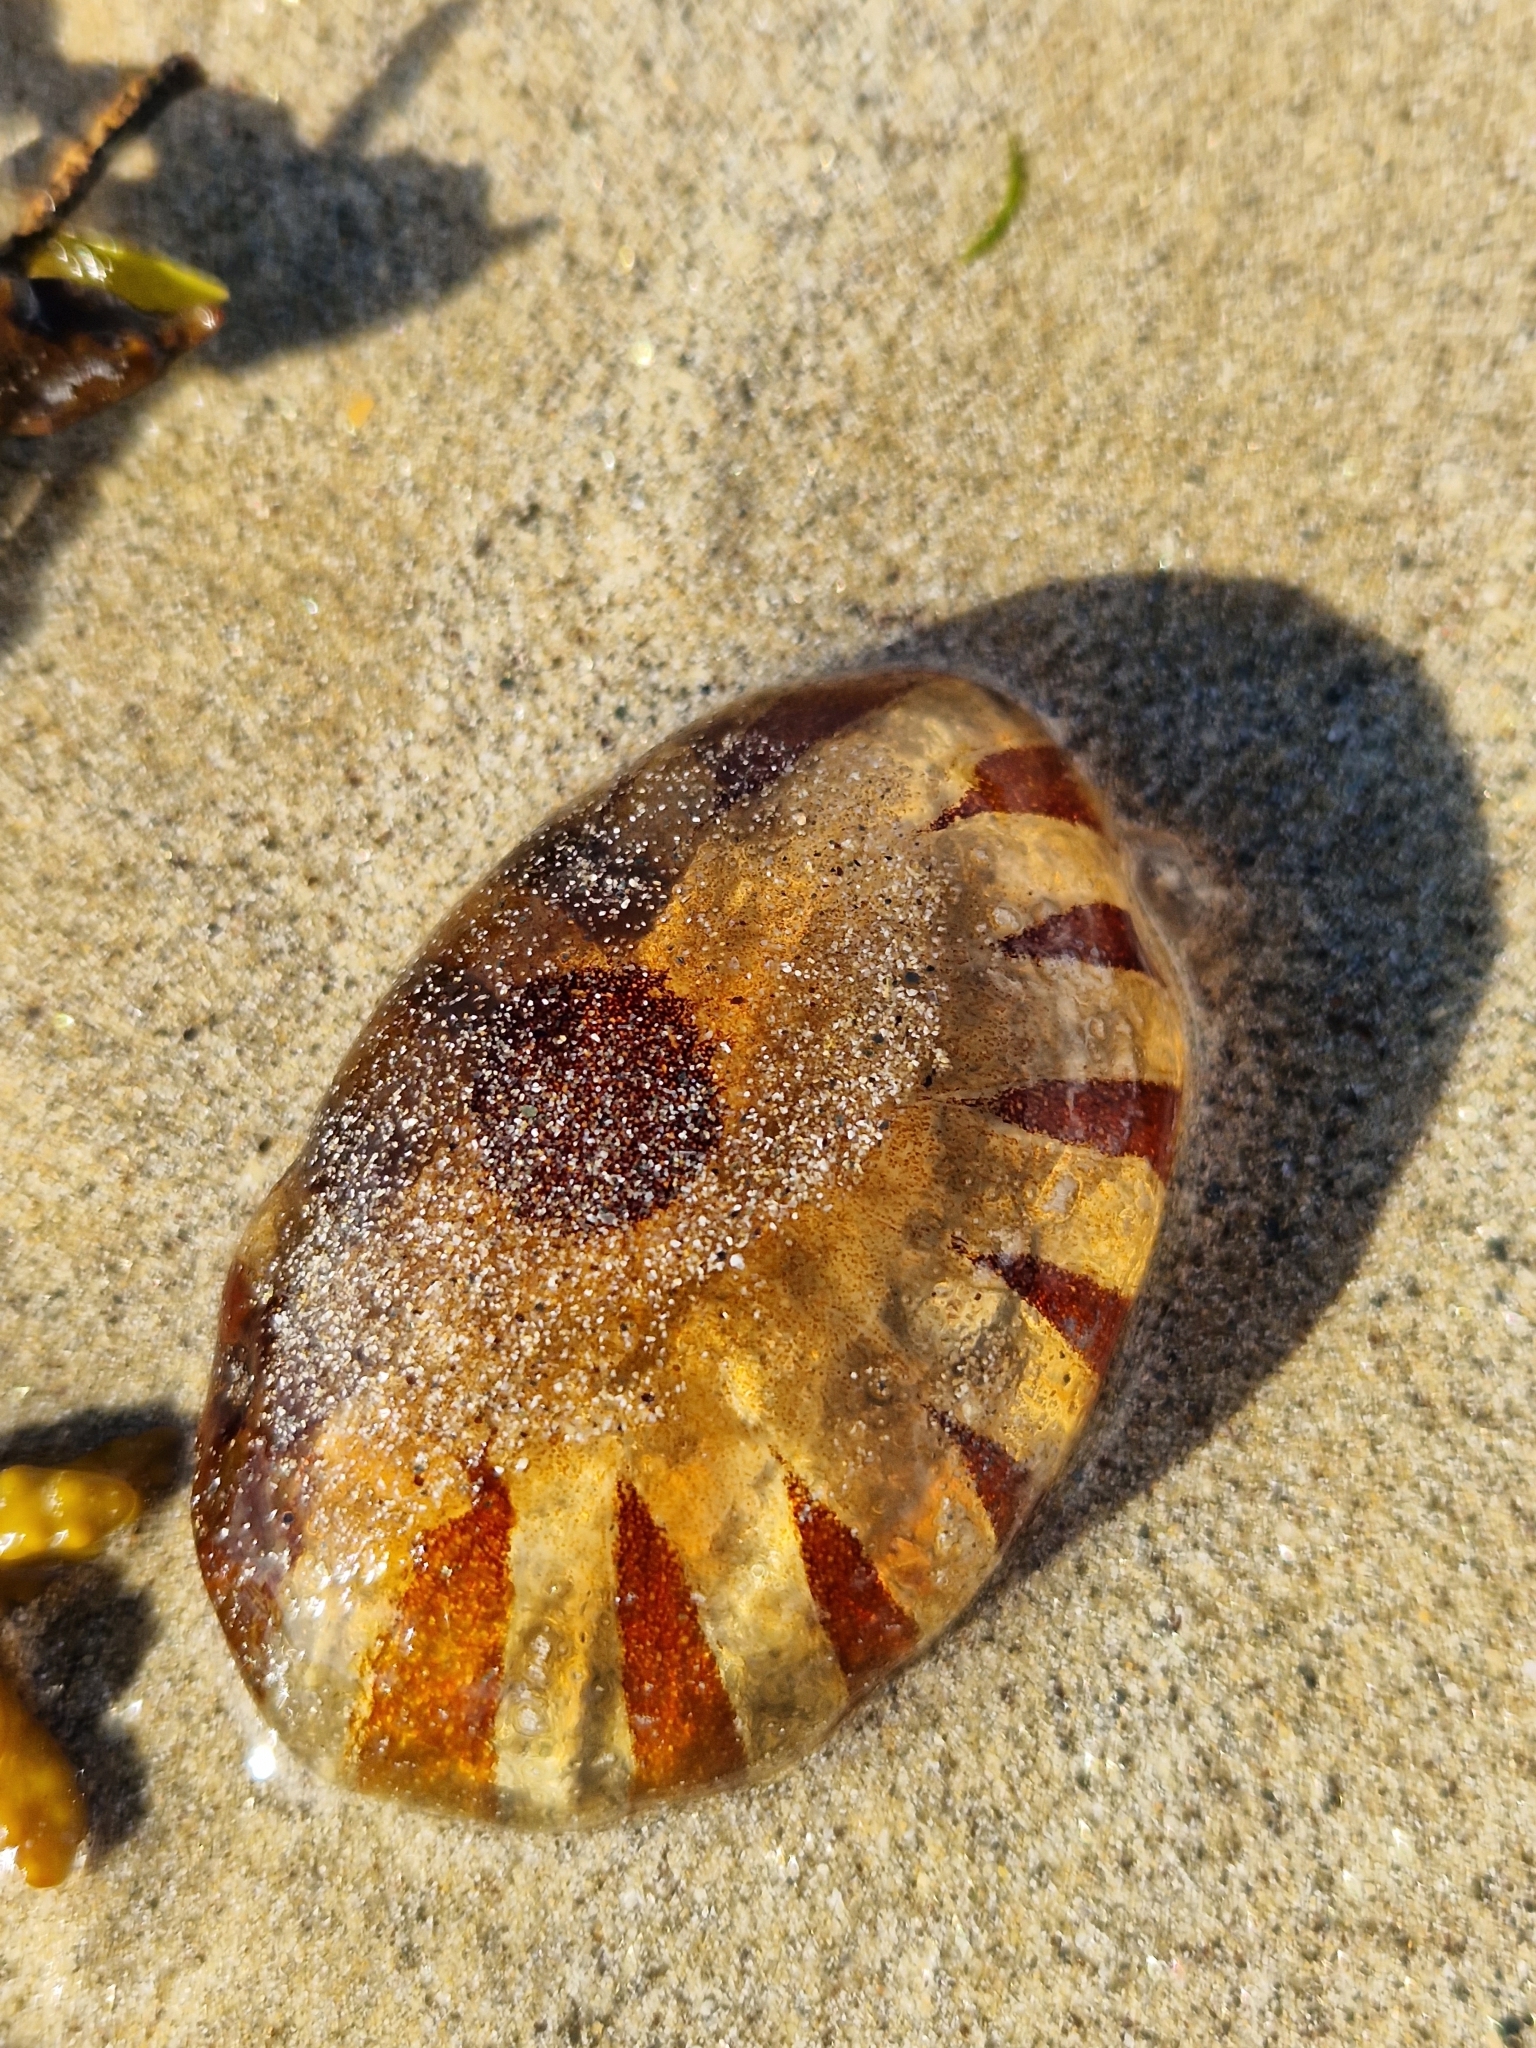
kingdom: Animalia
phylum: Cnidaria
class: Scyphozoa
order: Semaeostomeae
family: Pelagiidae
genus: Chrysaora
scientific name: Chrysaora hysoscella
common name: Compass jellyfish
